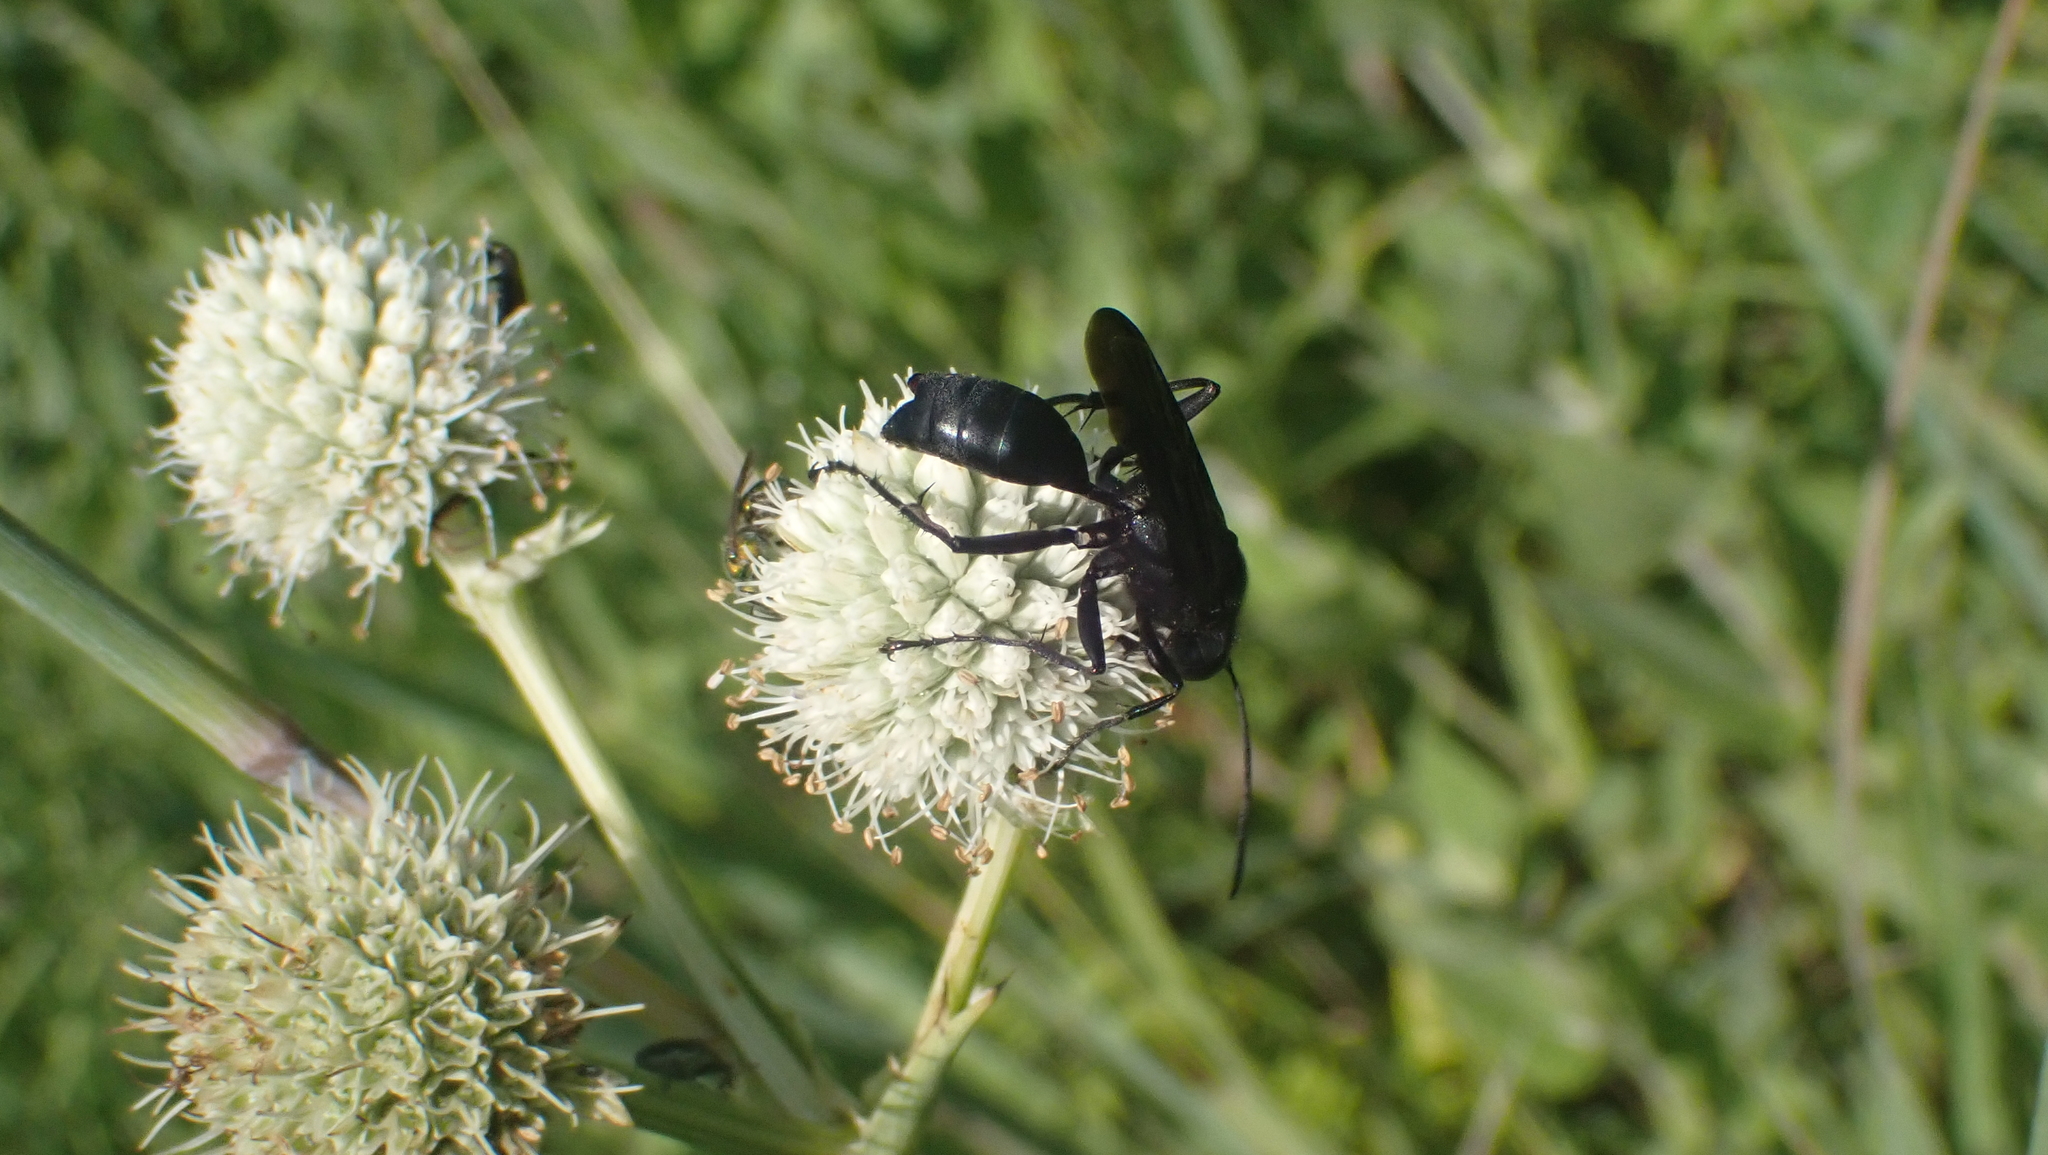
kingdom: Animalia
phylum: Arthropoda
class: Insecta
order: Hymenoptera
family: Sphecidae
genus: Sphex
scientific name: Sphex pensylvanicus
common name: Great black digger wasp
